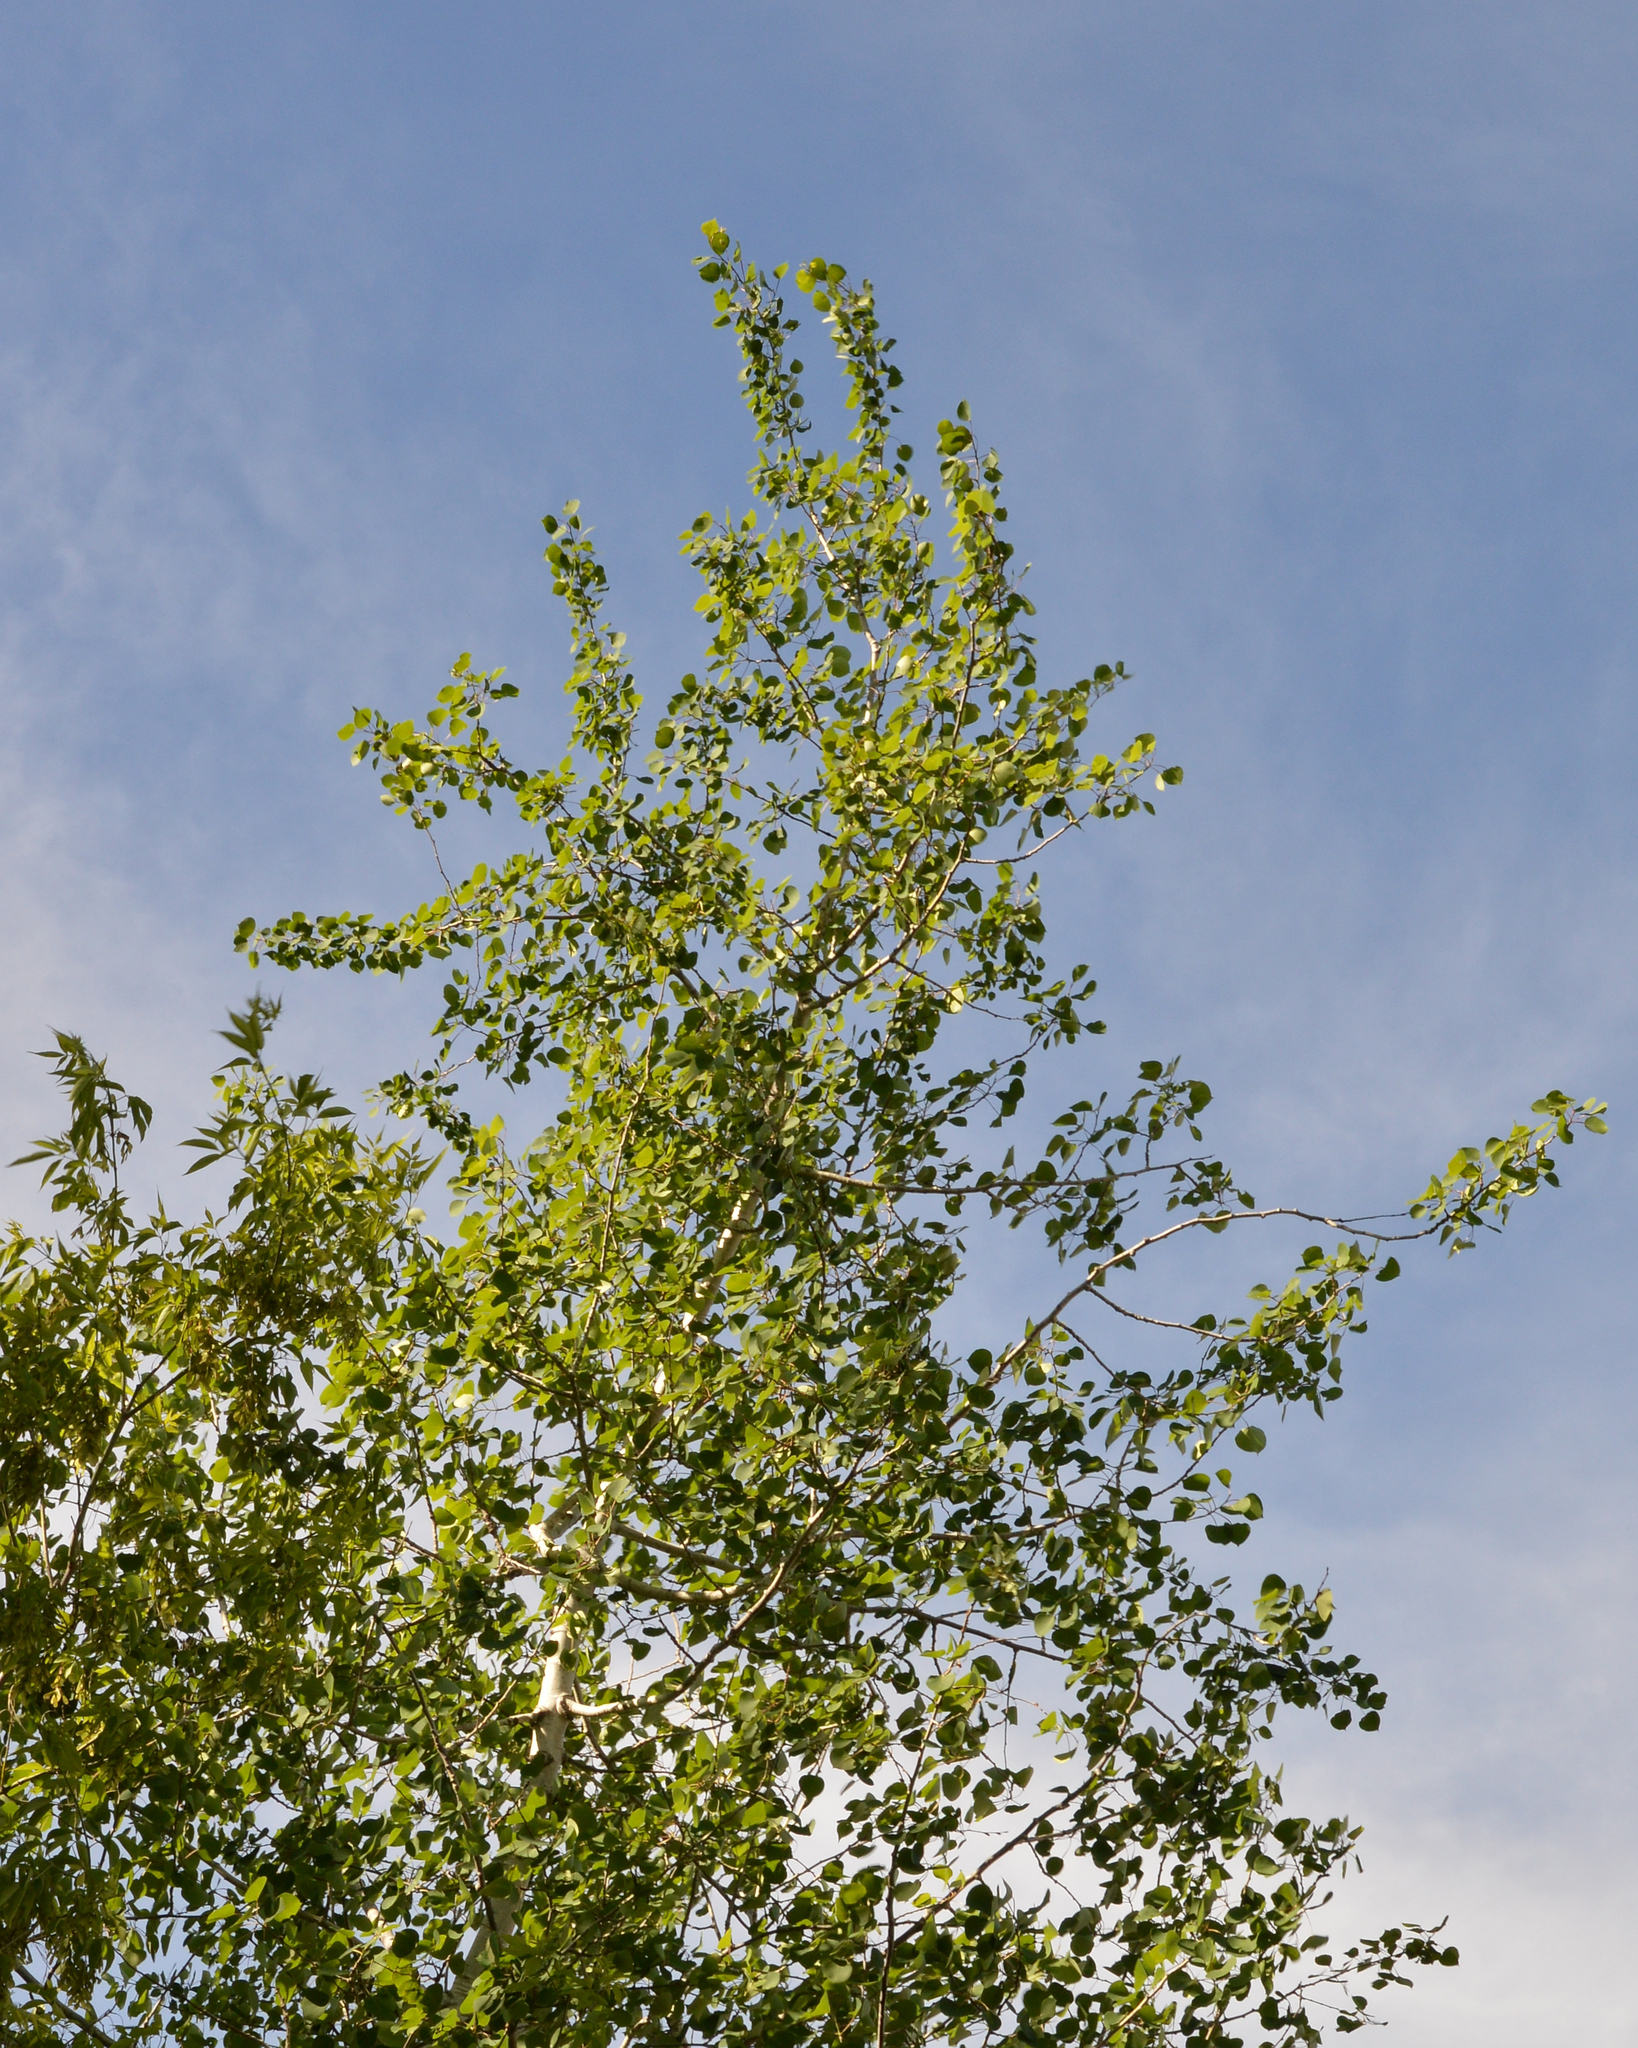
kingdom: Plantae
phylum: Tracheophyta
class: Magnoliopsida
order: Malpighiales
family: Salicaceae
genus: Populus
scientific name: Populus tremuloides
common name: Quaking aspen
